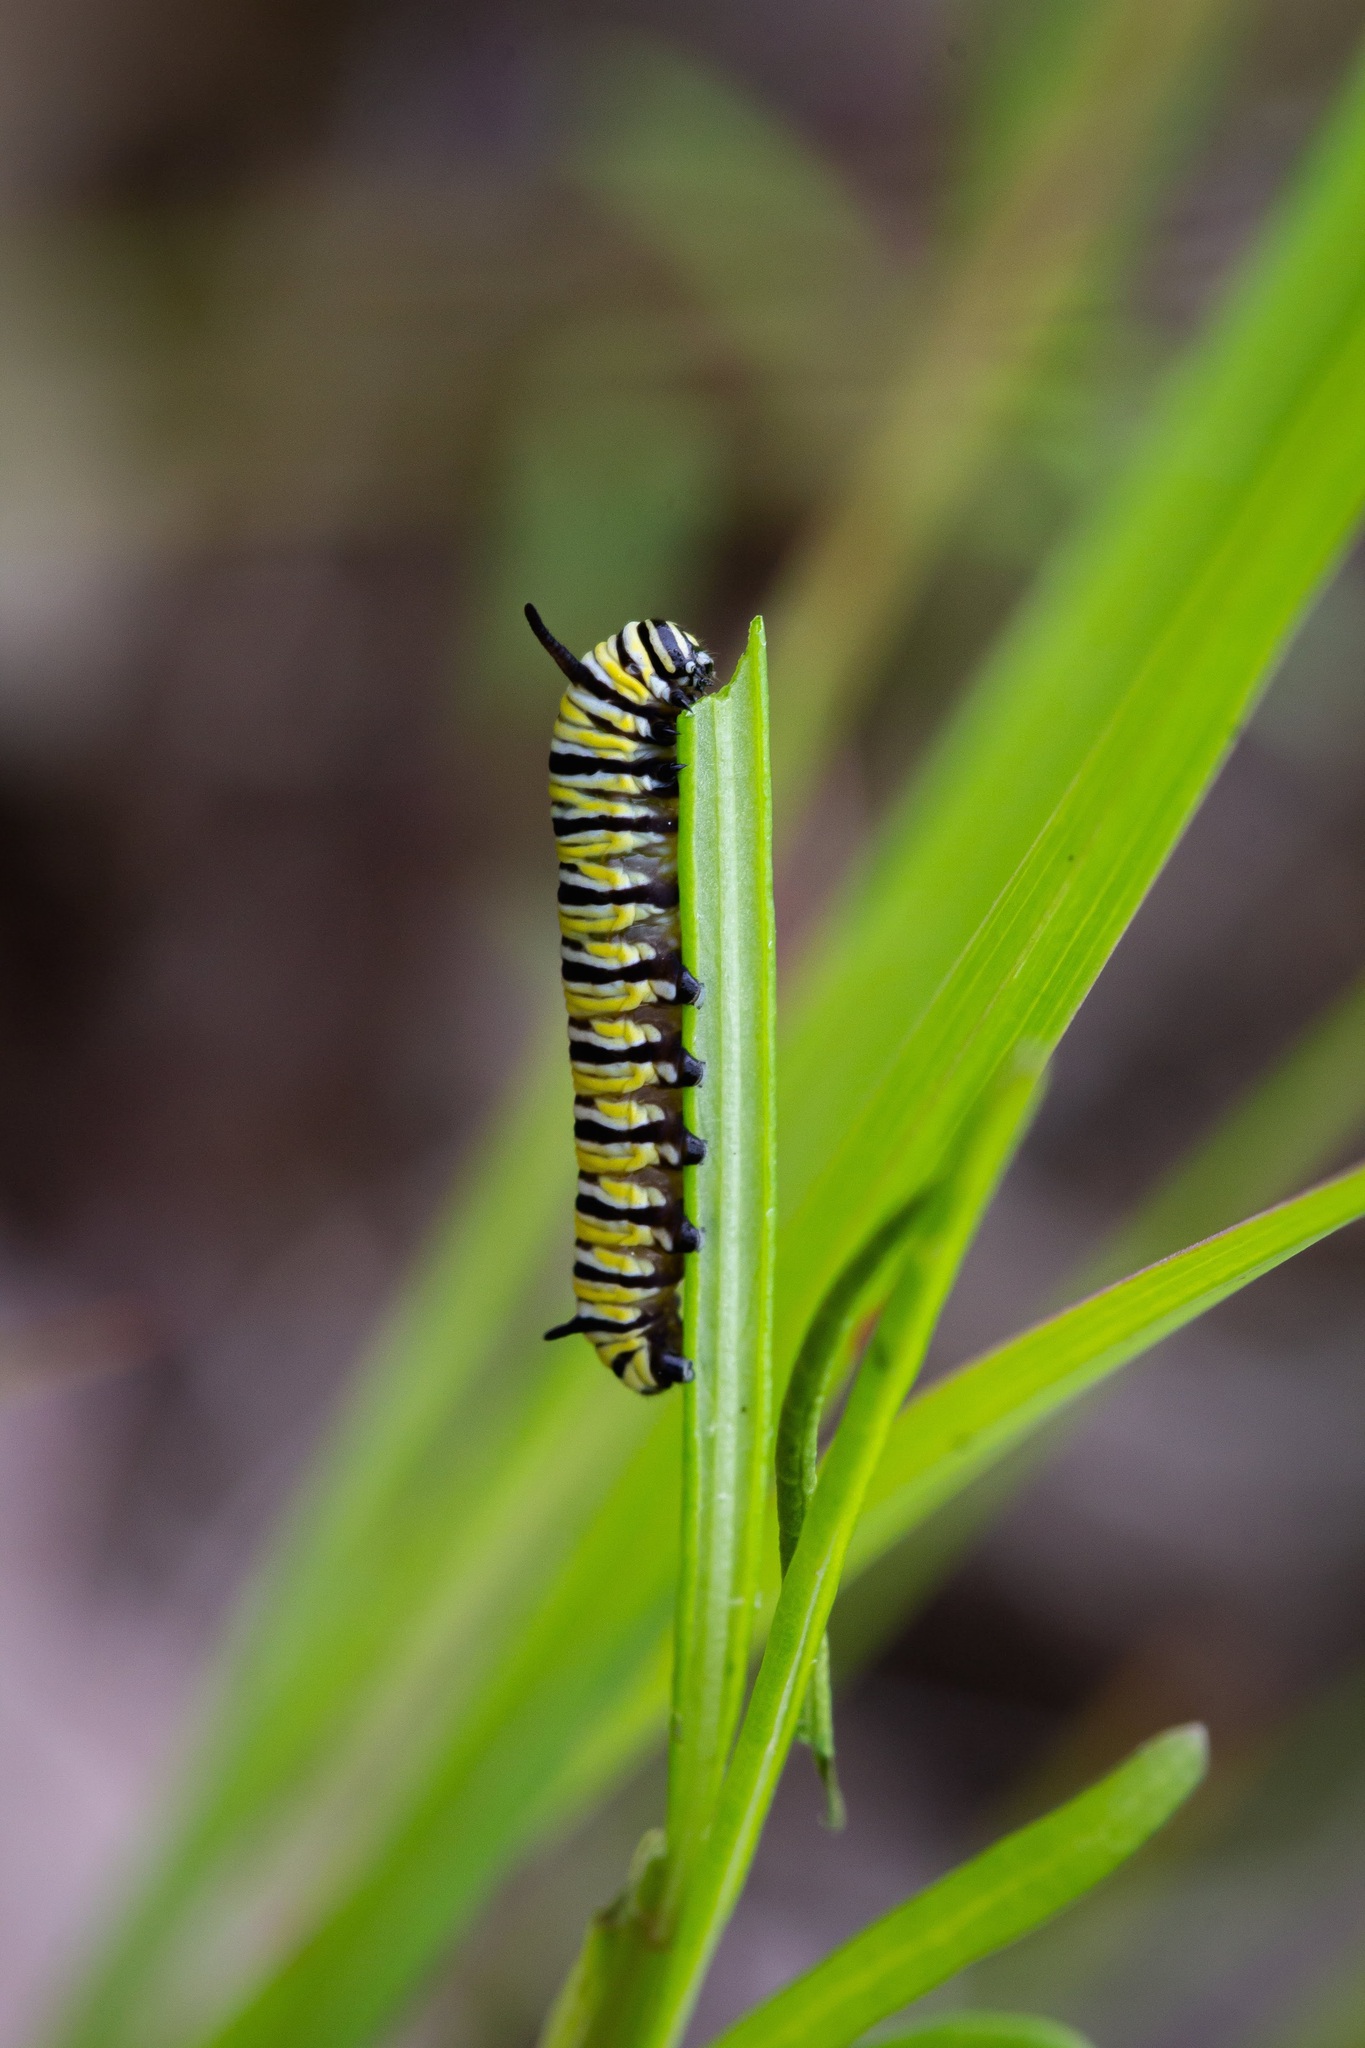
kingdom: Animalia
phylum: Arthropoda
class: Insecta
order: Lepidoptera
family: Nymphalidae
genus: Danaus
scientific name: Danaus plexippus
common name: Monarch
